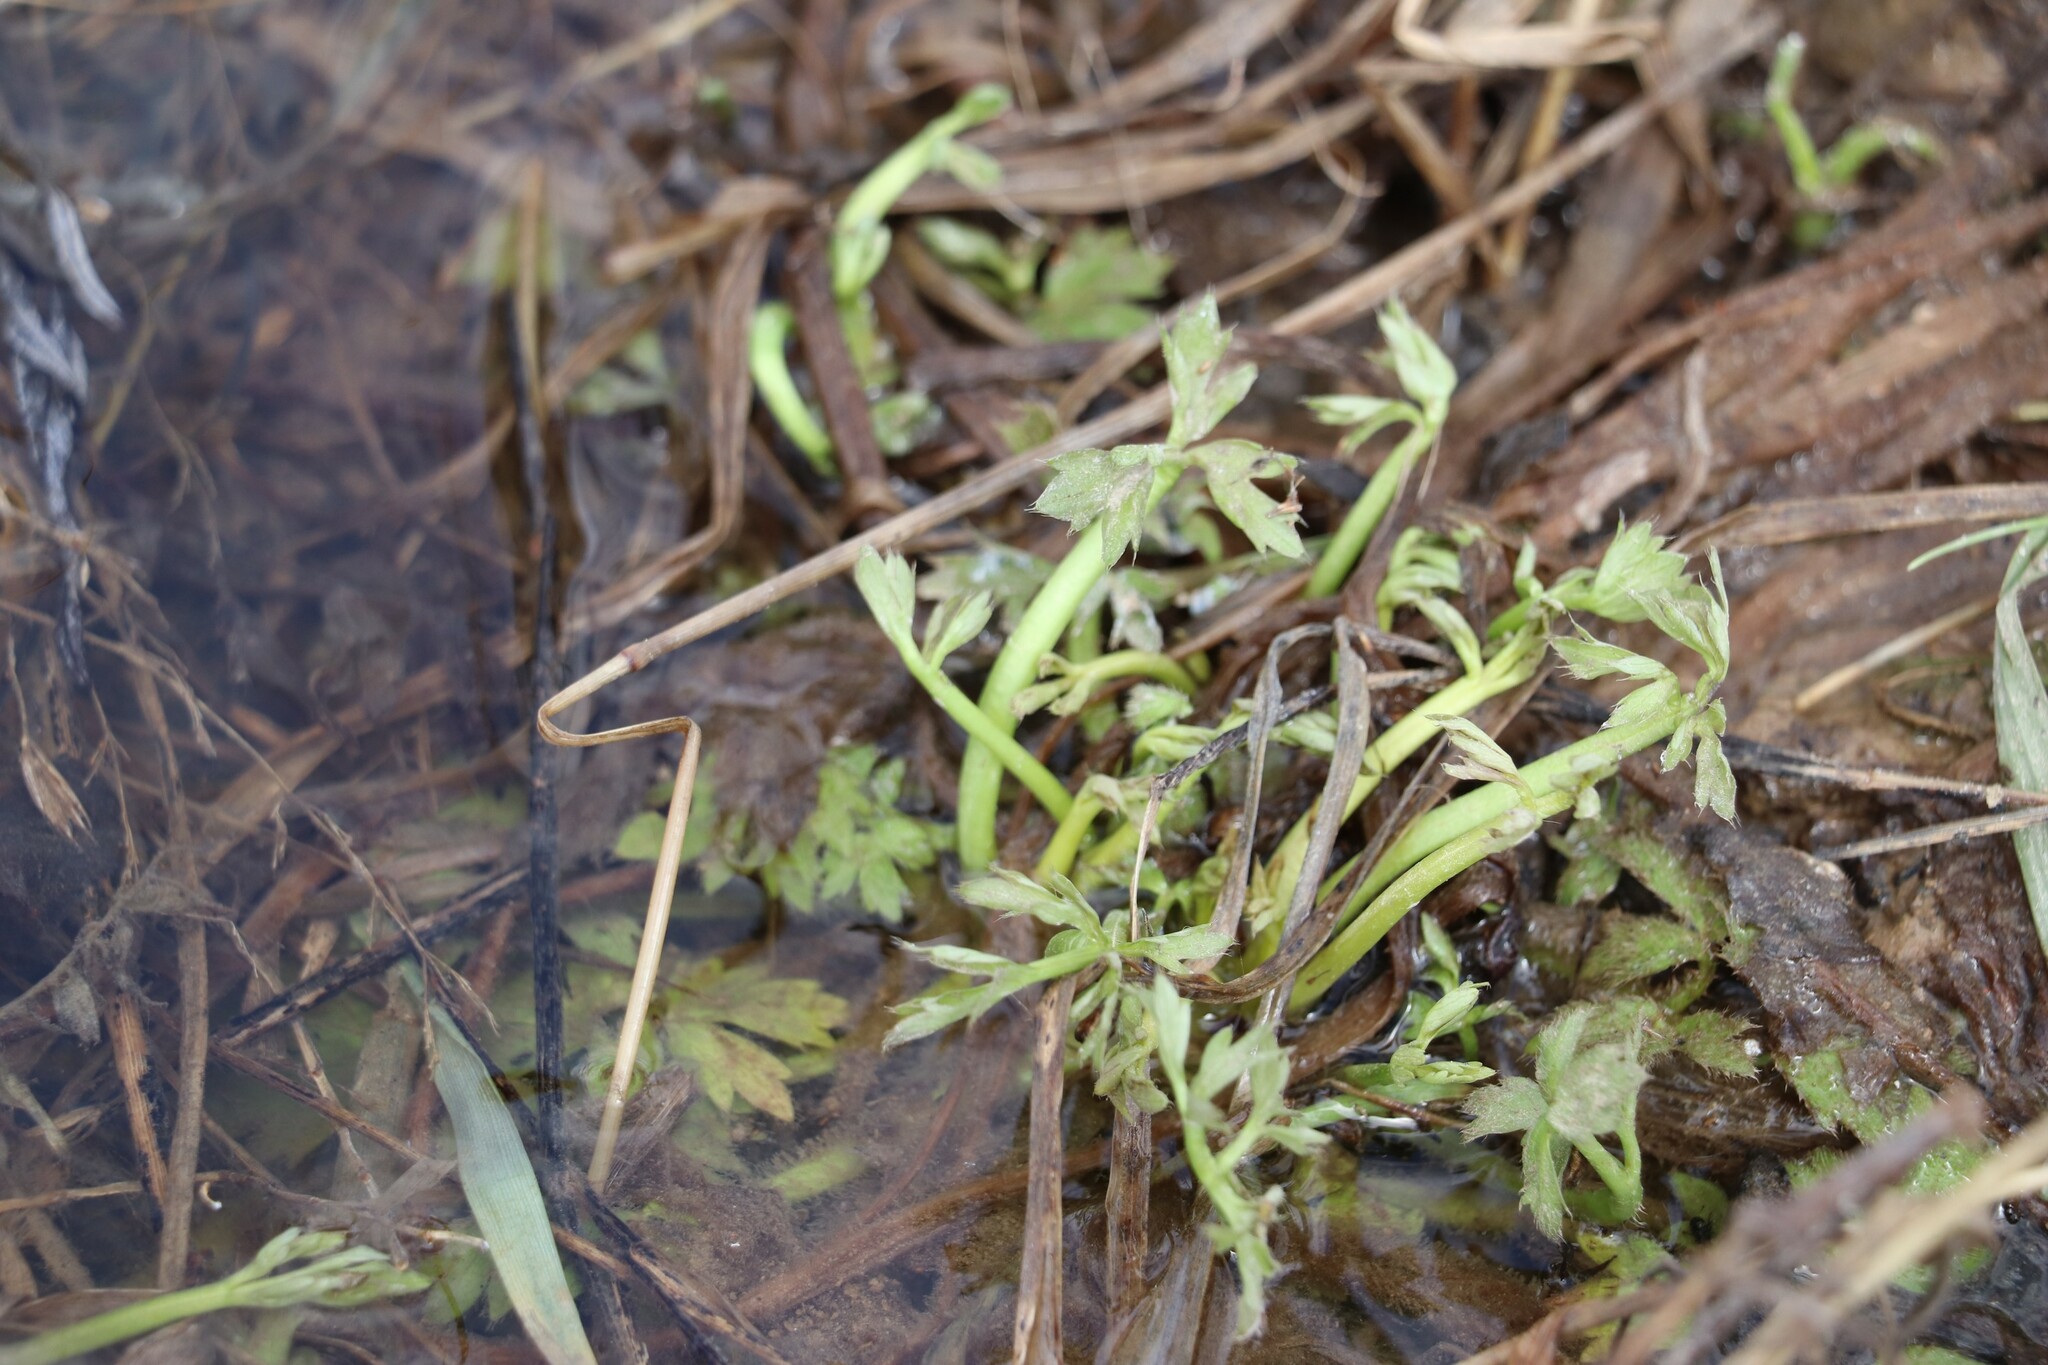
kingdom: Plantae
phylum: Tracheophyta
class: Magnoliopsida
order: Ranunculales
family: Ranunculaceae
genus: Ranunculus
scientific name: Ranunculus repens
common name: Creeping buttercup
